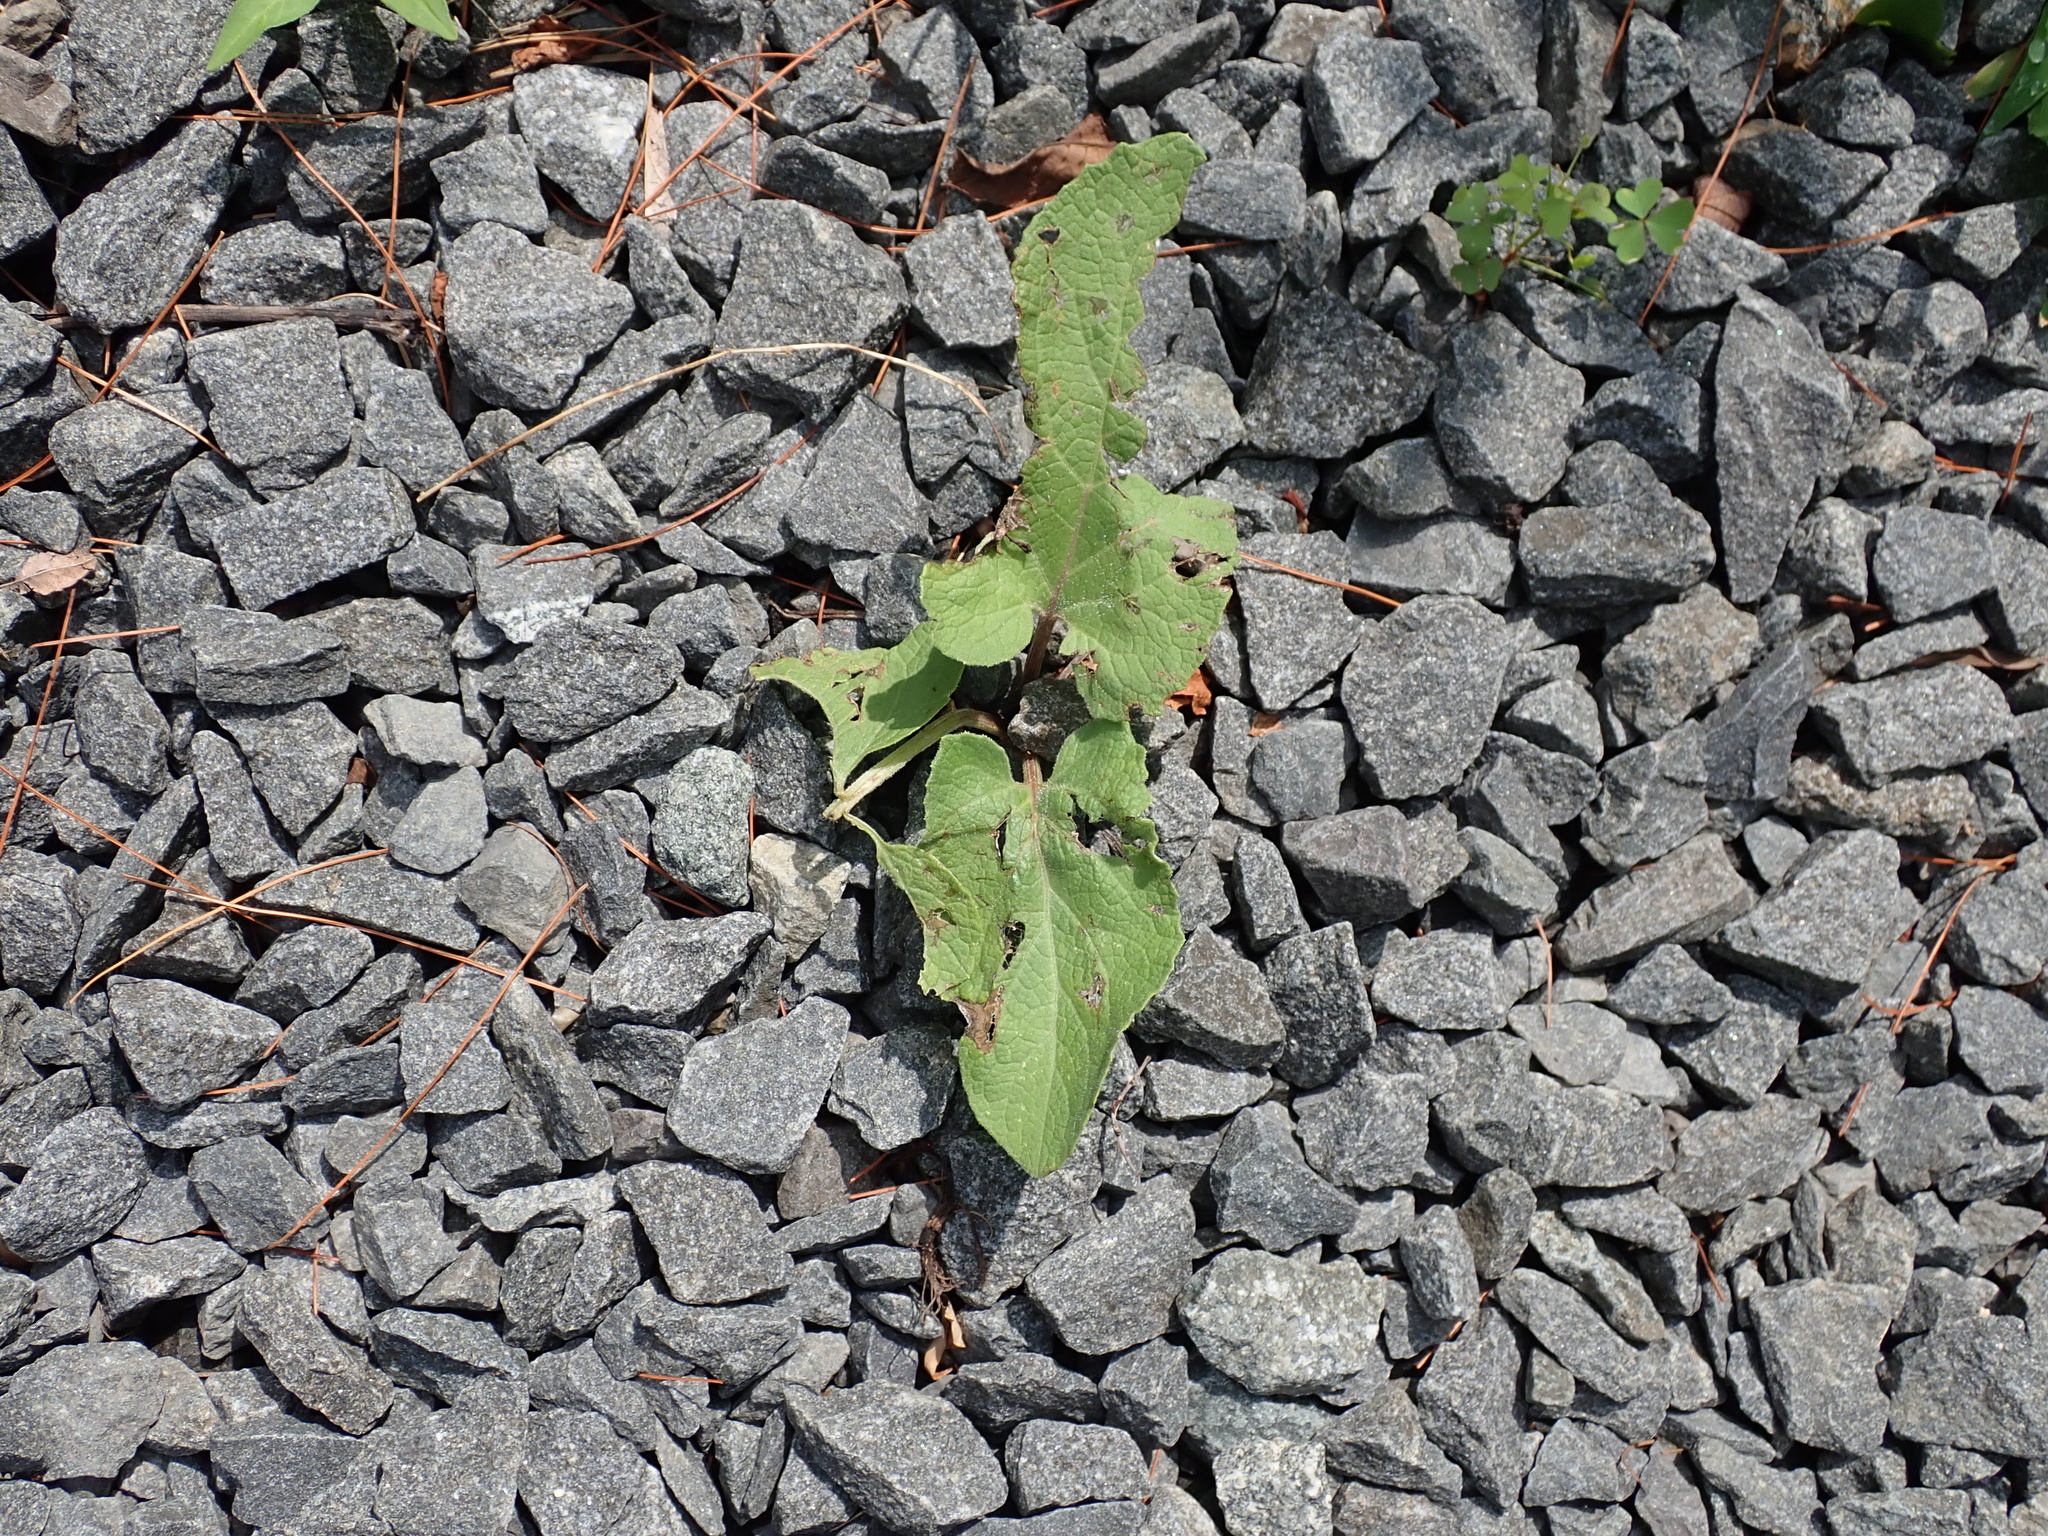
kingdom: Plantae
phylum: Tracheophyta
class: Magnoliopsida
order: Asterales
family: Asteraceae
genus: Arctium
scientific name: Arctium minus
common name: Lesser burdock
